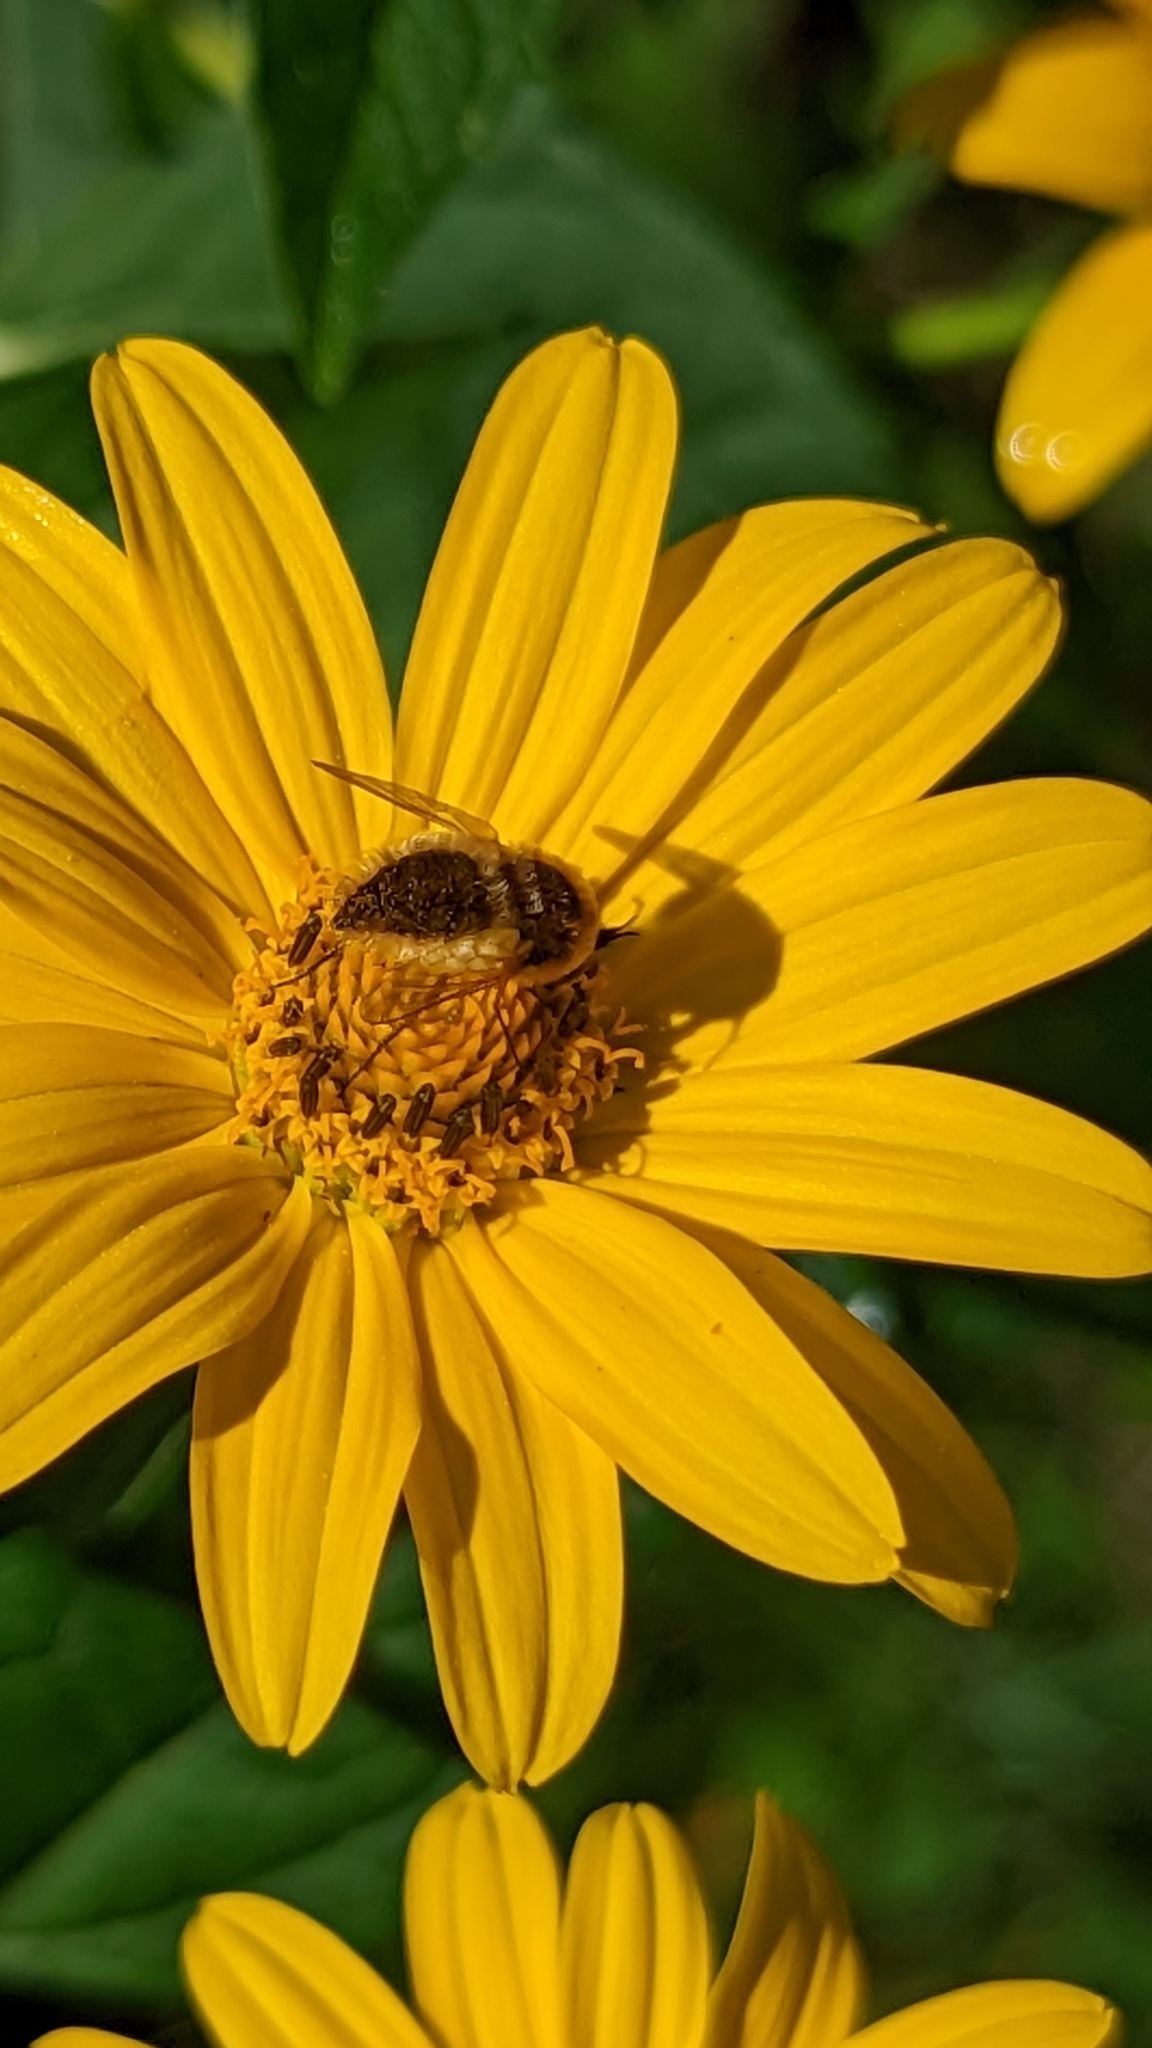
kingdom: Animalia
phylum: Arthropoda
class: Insecta
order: Diptera
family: Bombyliidae
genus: Sparnopolius
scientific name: Sparnopolius confusus
